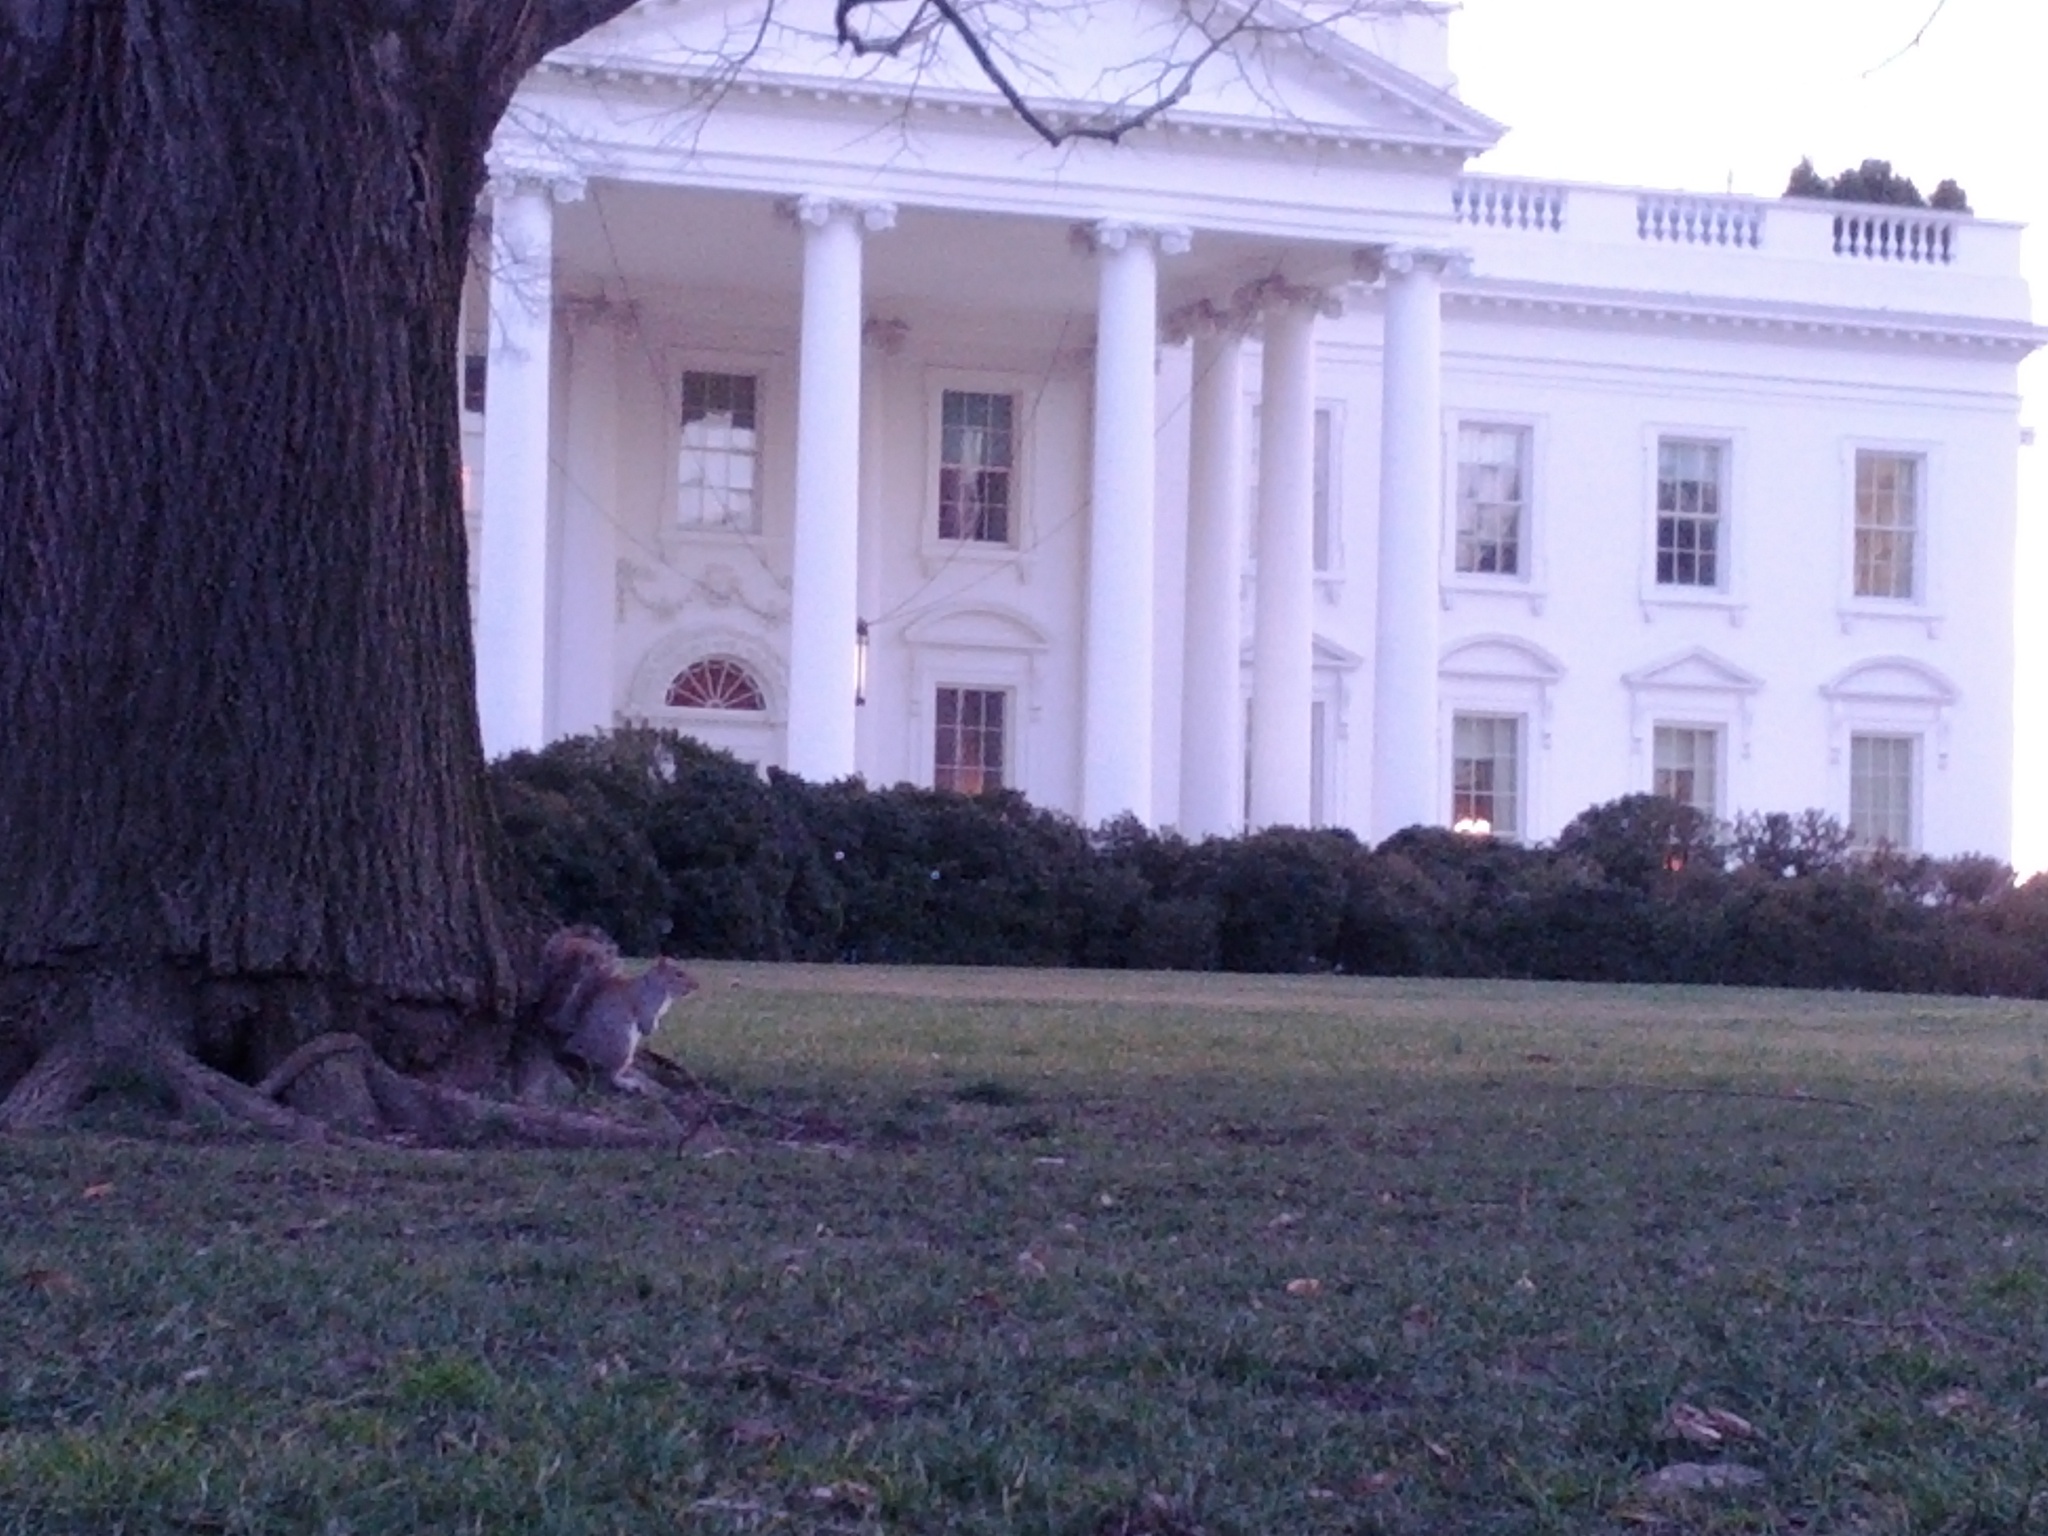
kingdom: Animalia
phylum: Chordata
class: Mammalia
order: Rodentia
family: Sciuridae
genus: Sciurus
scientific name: Sciurus carolinensis
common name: Eastern gray squirrel
